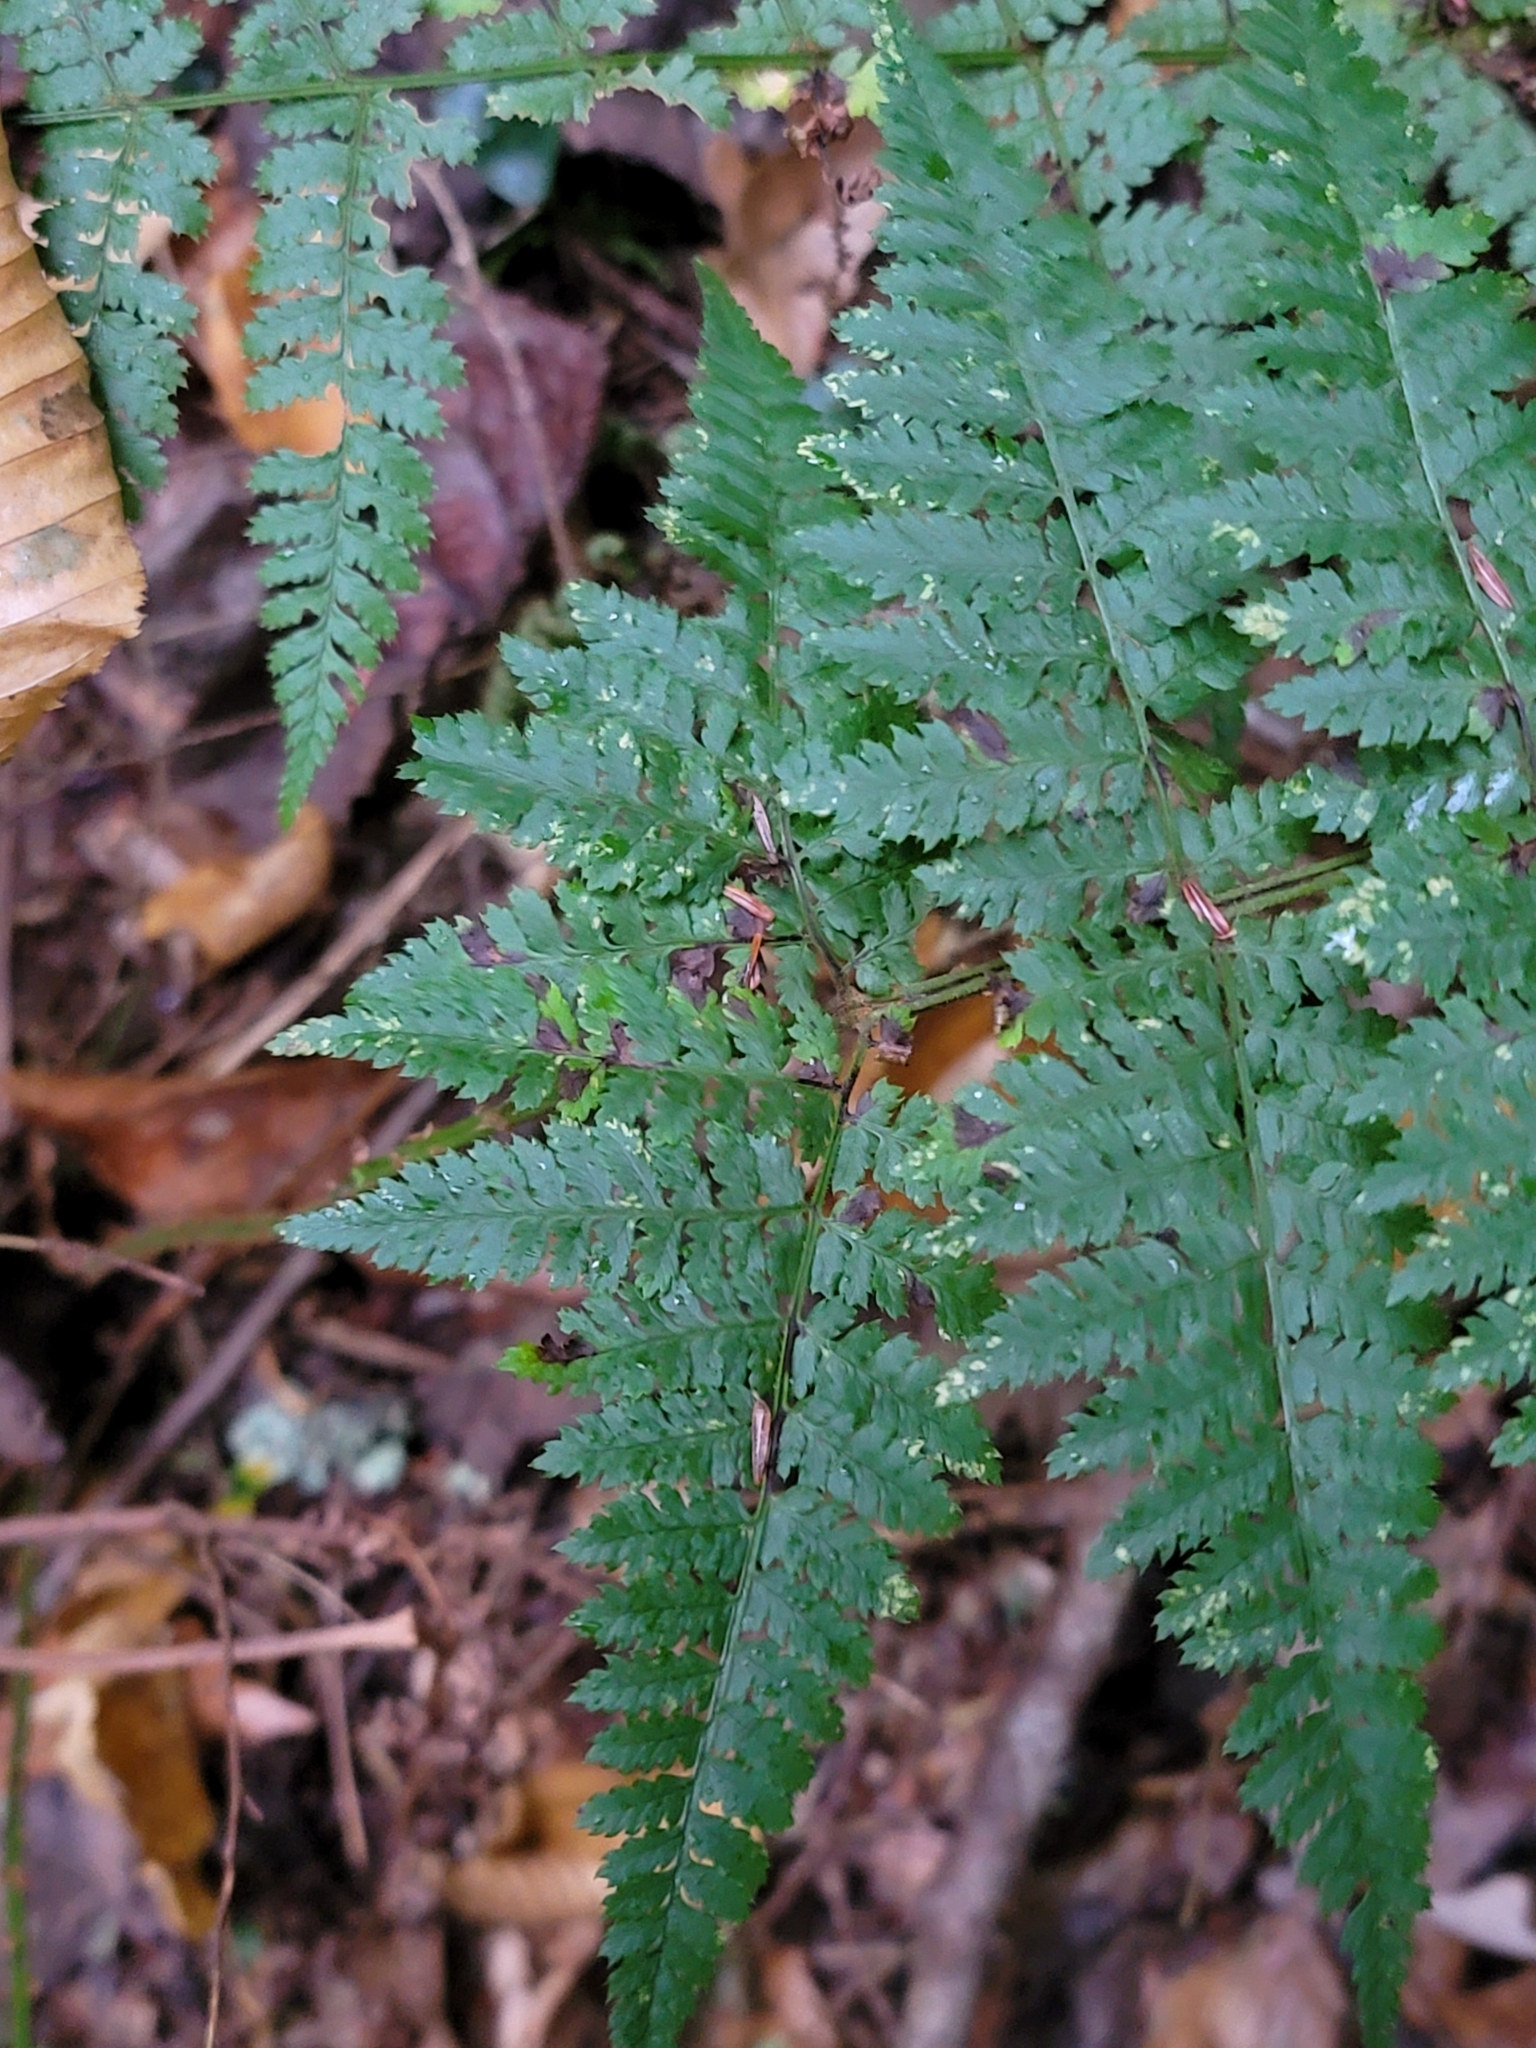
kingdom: Plantae
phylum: Tracheophyta
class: Polypodiopsida
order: Polypodiales
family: Dryopteridaceae
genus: Dryopteris
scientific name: Dryopteris carthusiana
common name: Narrow buckler-fern
